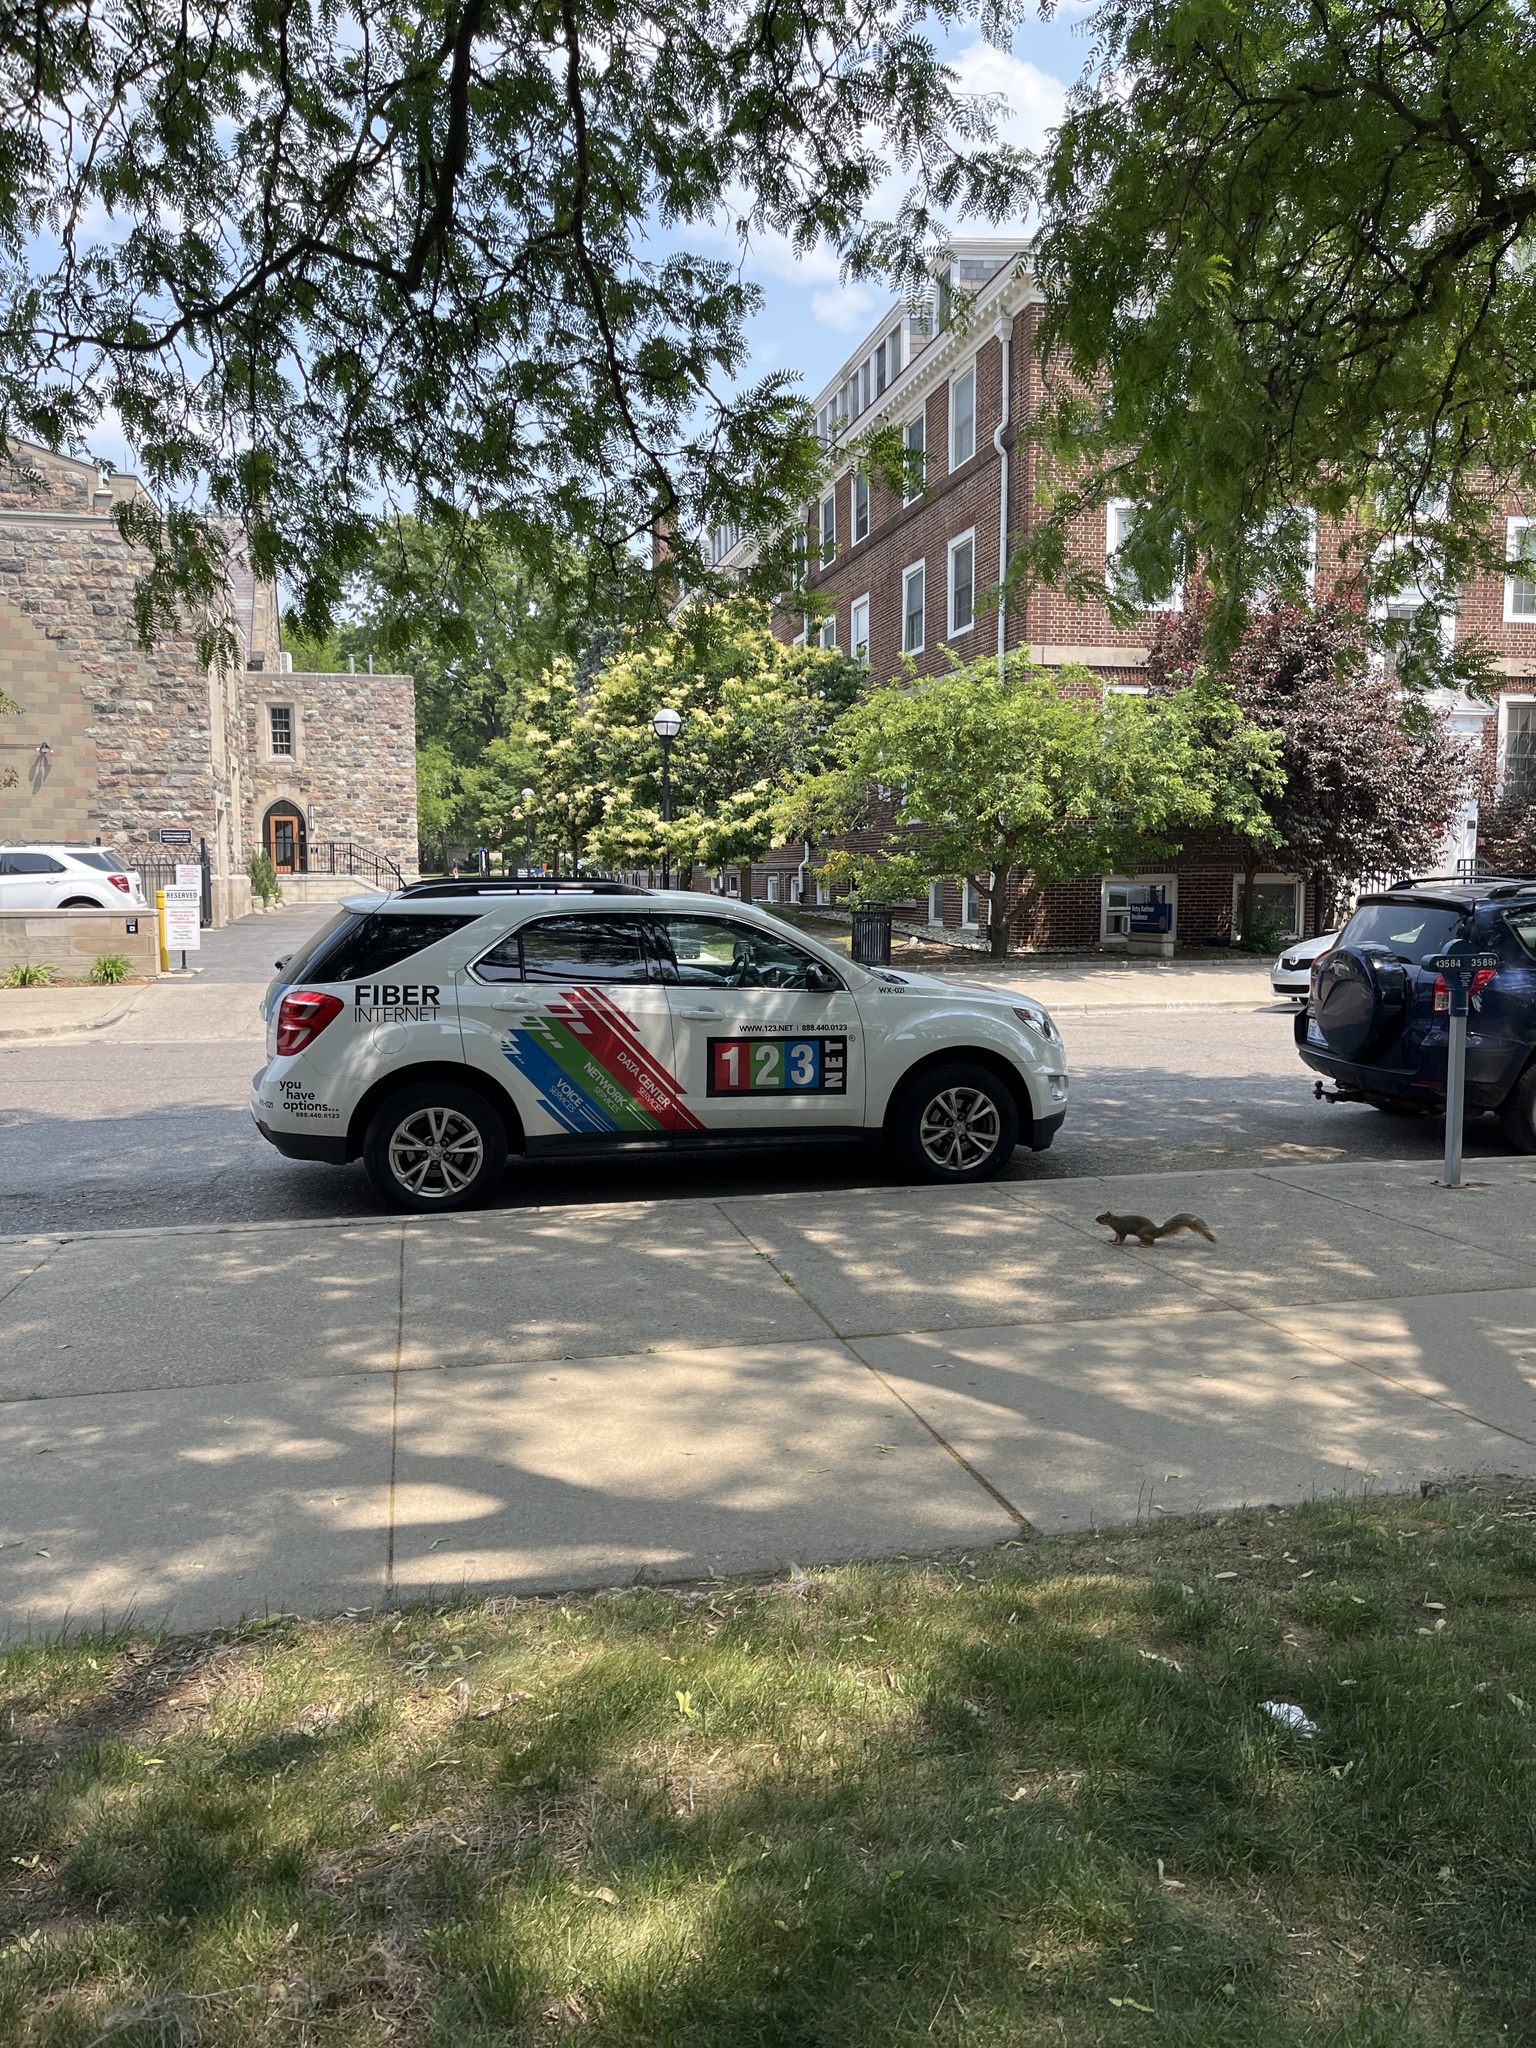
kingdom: Animalia
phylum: Chordata
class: Mammalia
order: Rodentia
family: Sciuridae
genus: Sciurus
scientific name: Sciurus niger
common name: Fox squirrel
